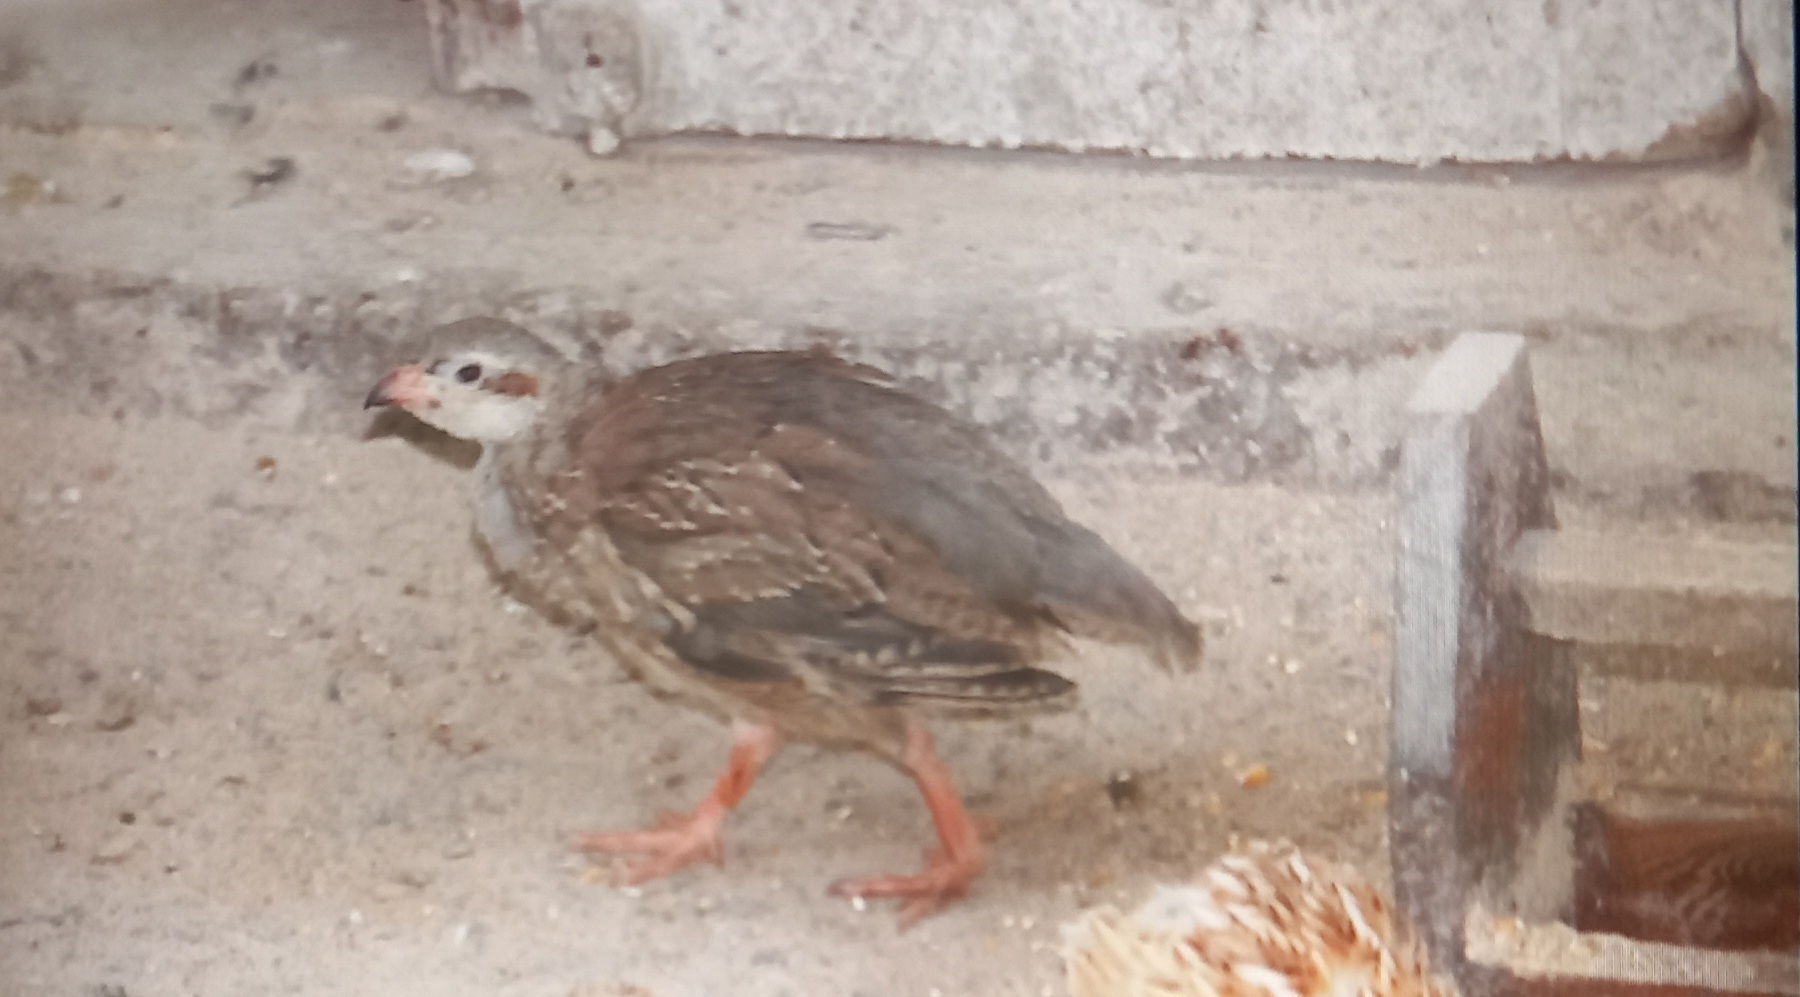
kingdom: Animalia
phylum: Chordata
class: Aves
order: Galliformes
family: Phasianidae
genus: Alectoris
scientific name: Alectoris chukar
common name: Chukar
